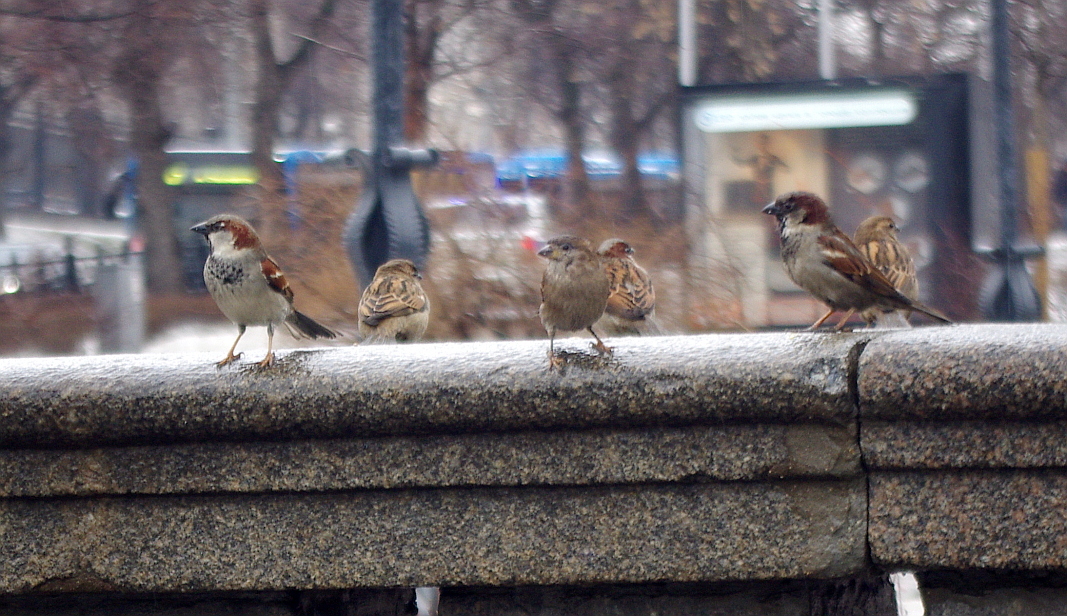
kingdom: Animalia
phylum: Chordata
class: Aves
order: Passeriformes
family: Passeridae
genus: Passer
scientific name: Passer domesticus
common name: House sparrow
